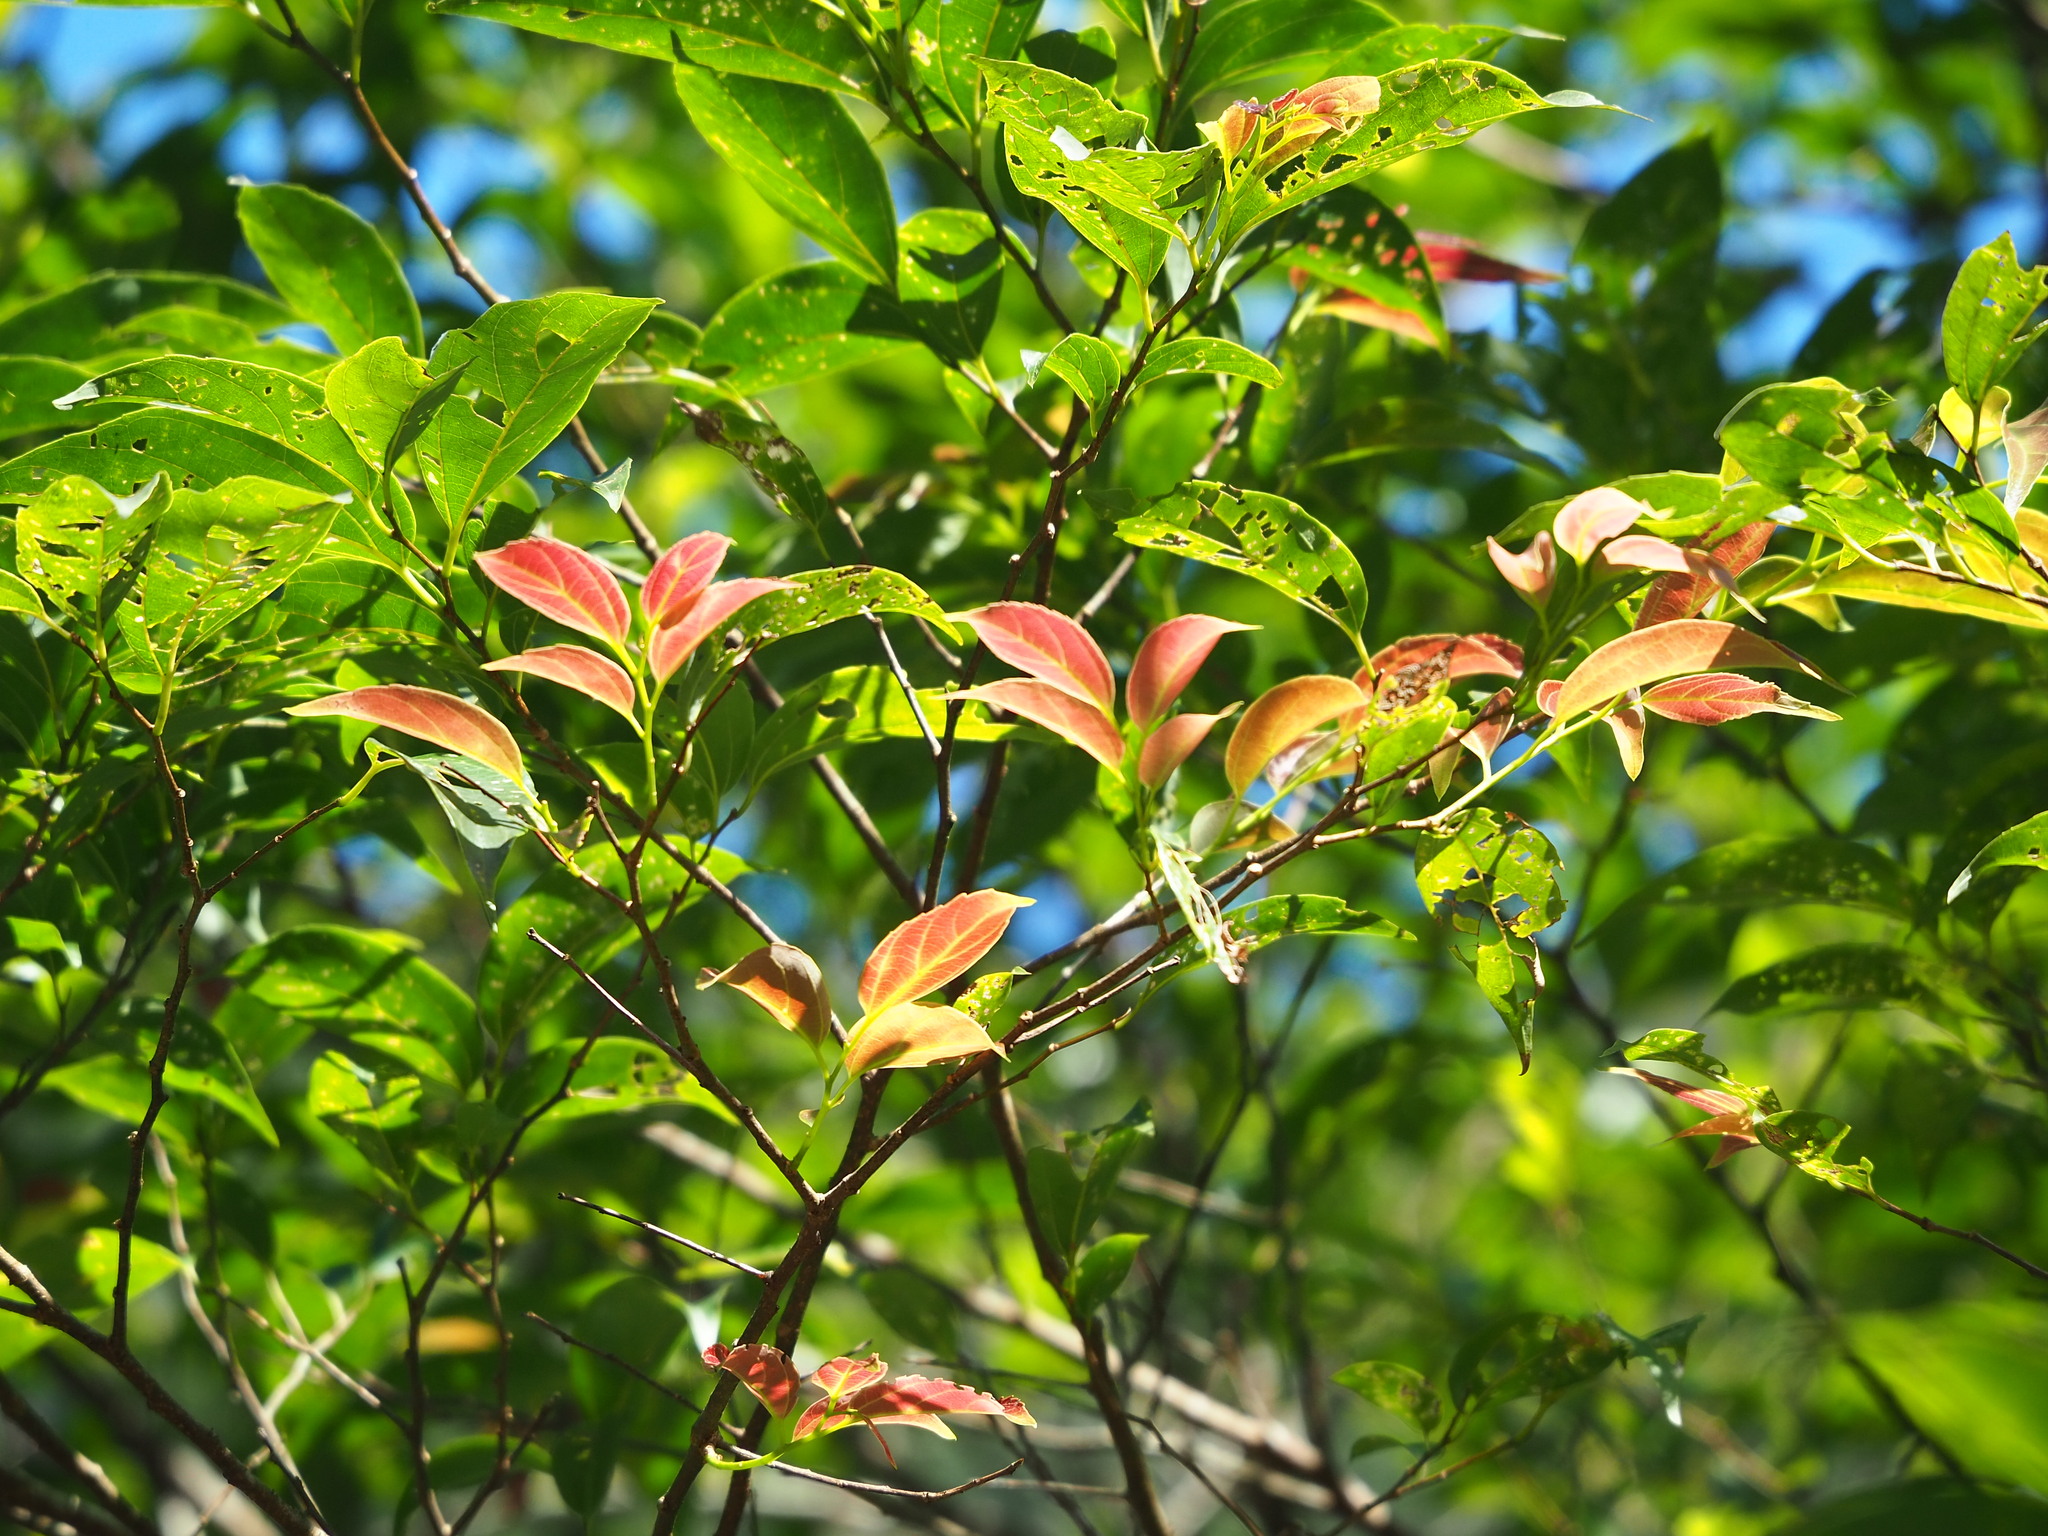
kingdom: Plantae
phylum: Tracheophyta
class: Magnoliopsida
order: Rosales
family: Cannabaceae
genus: Celtis
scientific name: Celtis tetrandra
